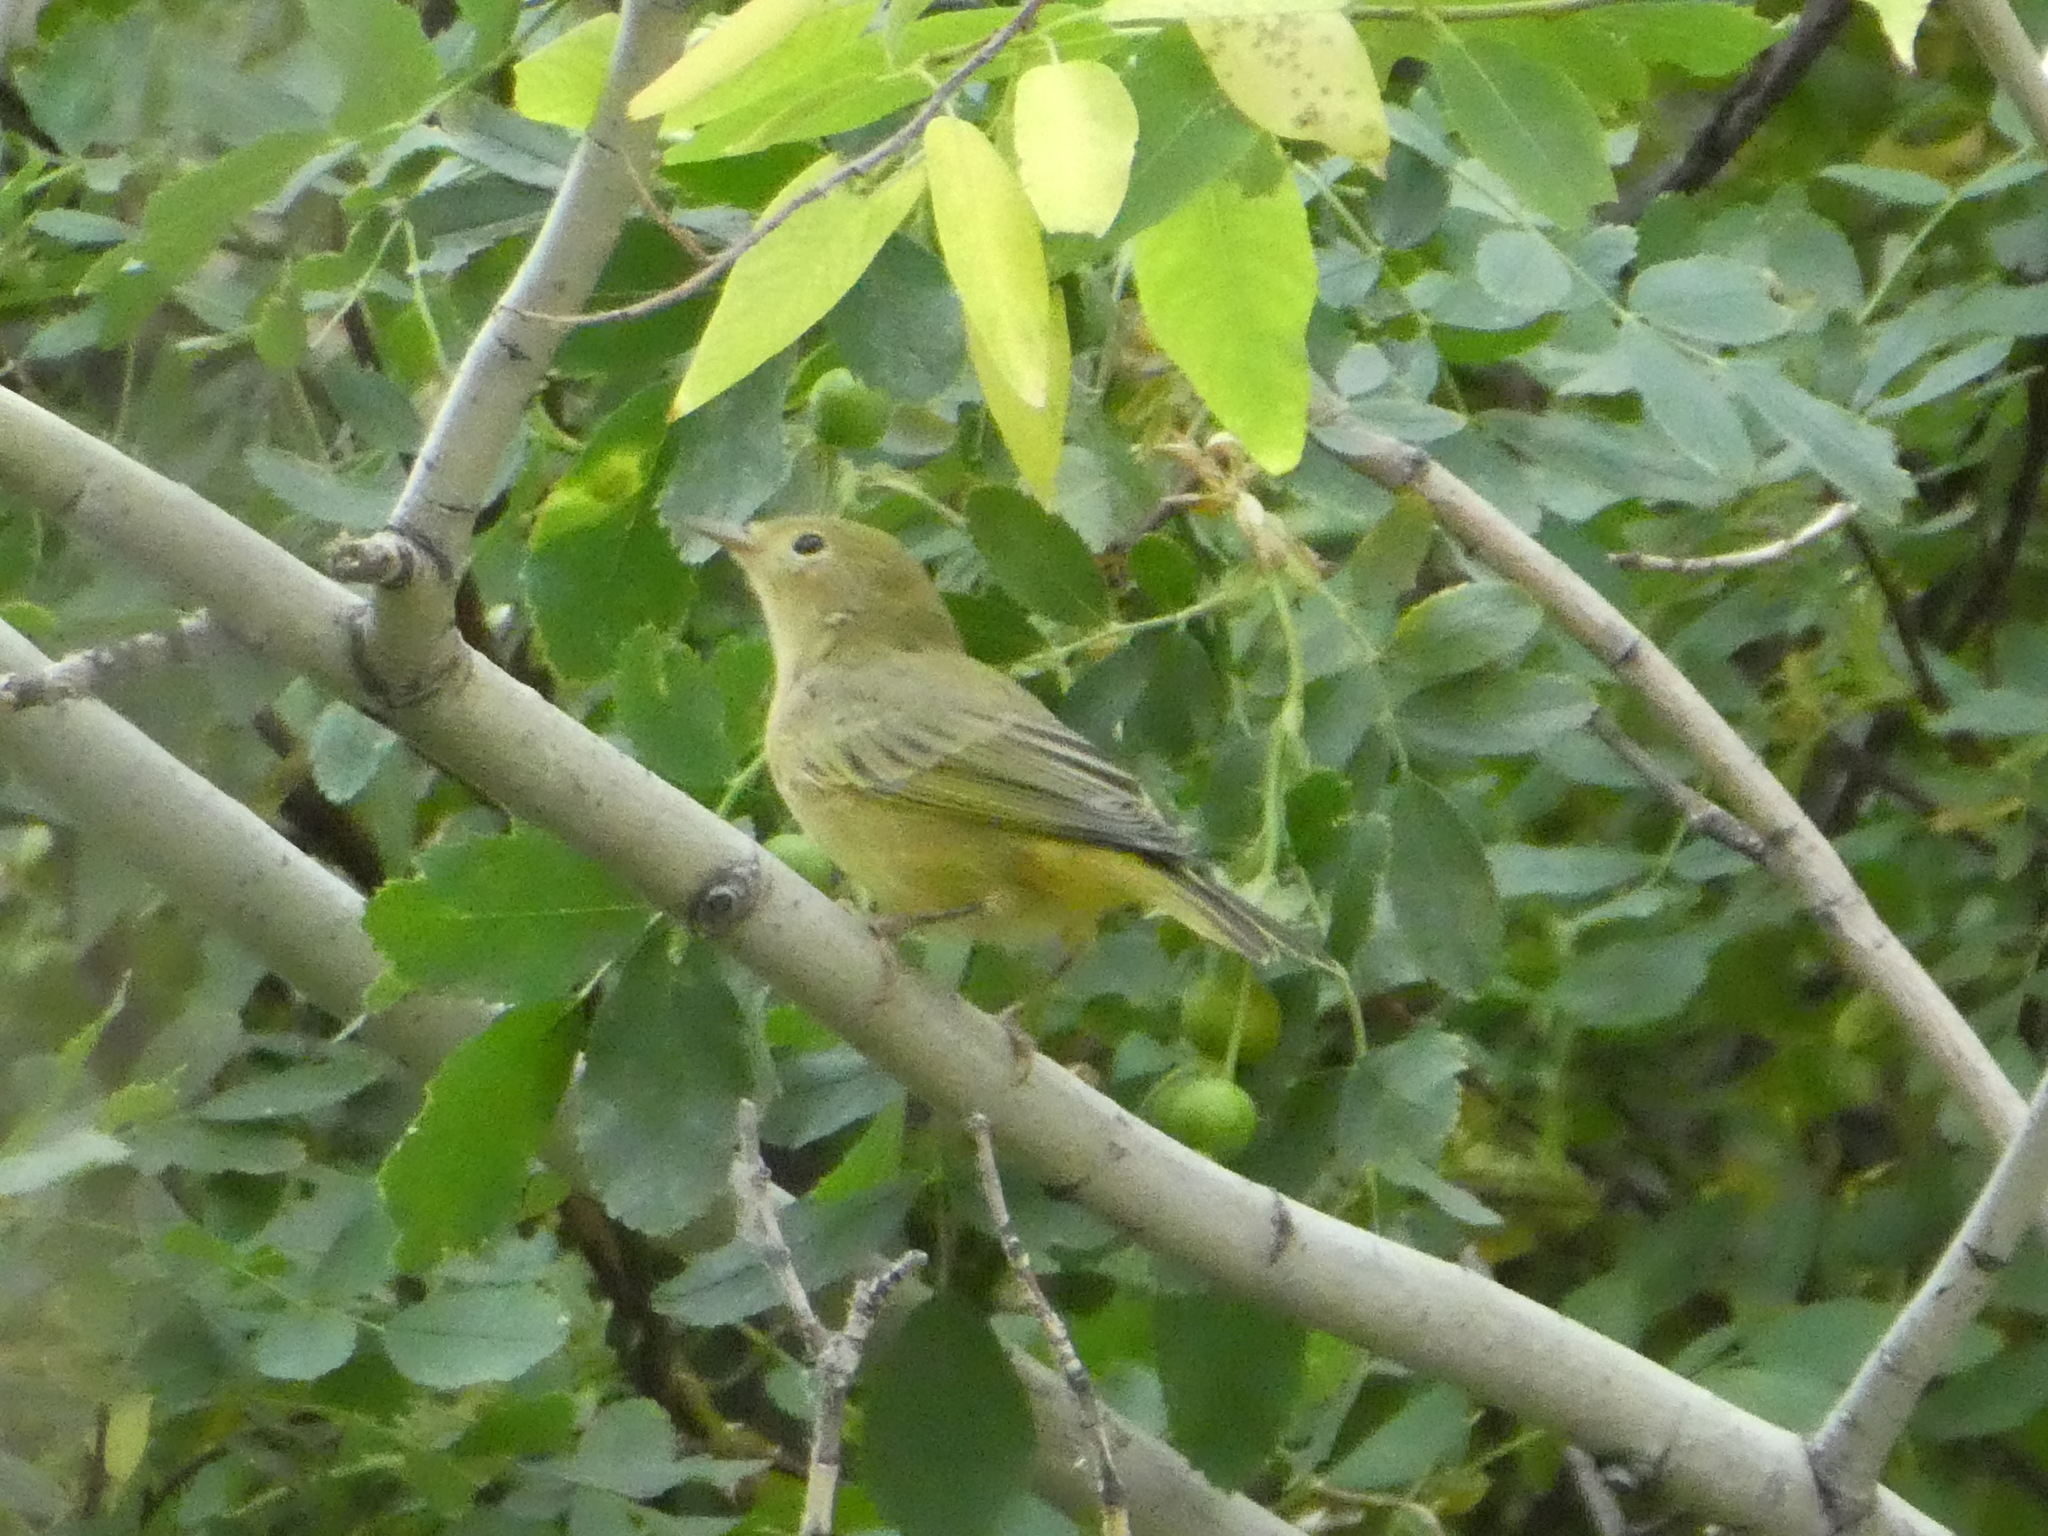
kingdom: Animalia
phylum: Chordata
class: Aves
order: Passeriformes
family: Parulidae
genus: Setophaga
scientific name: Setophaga petechia
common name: Yellow warbler
